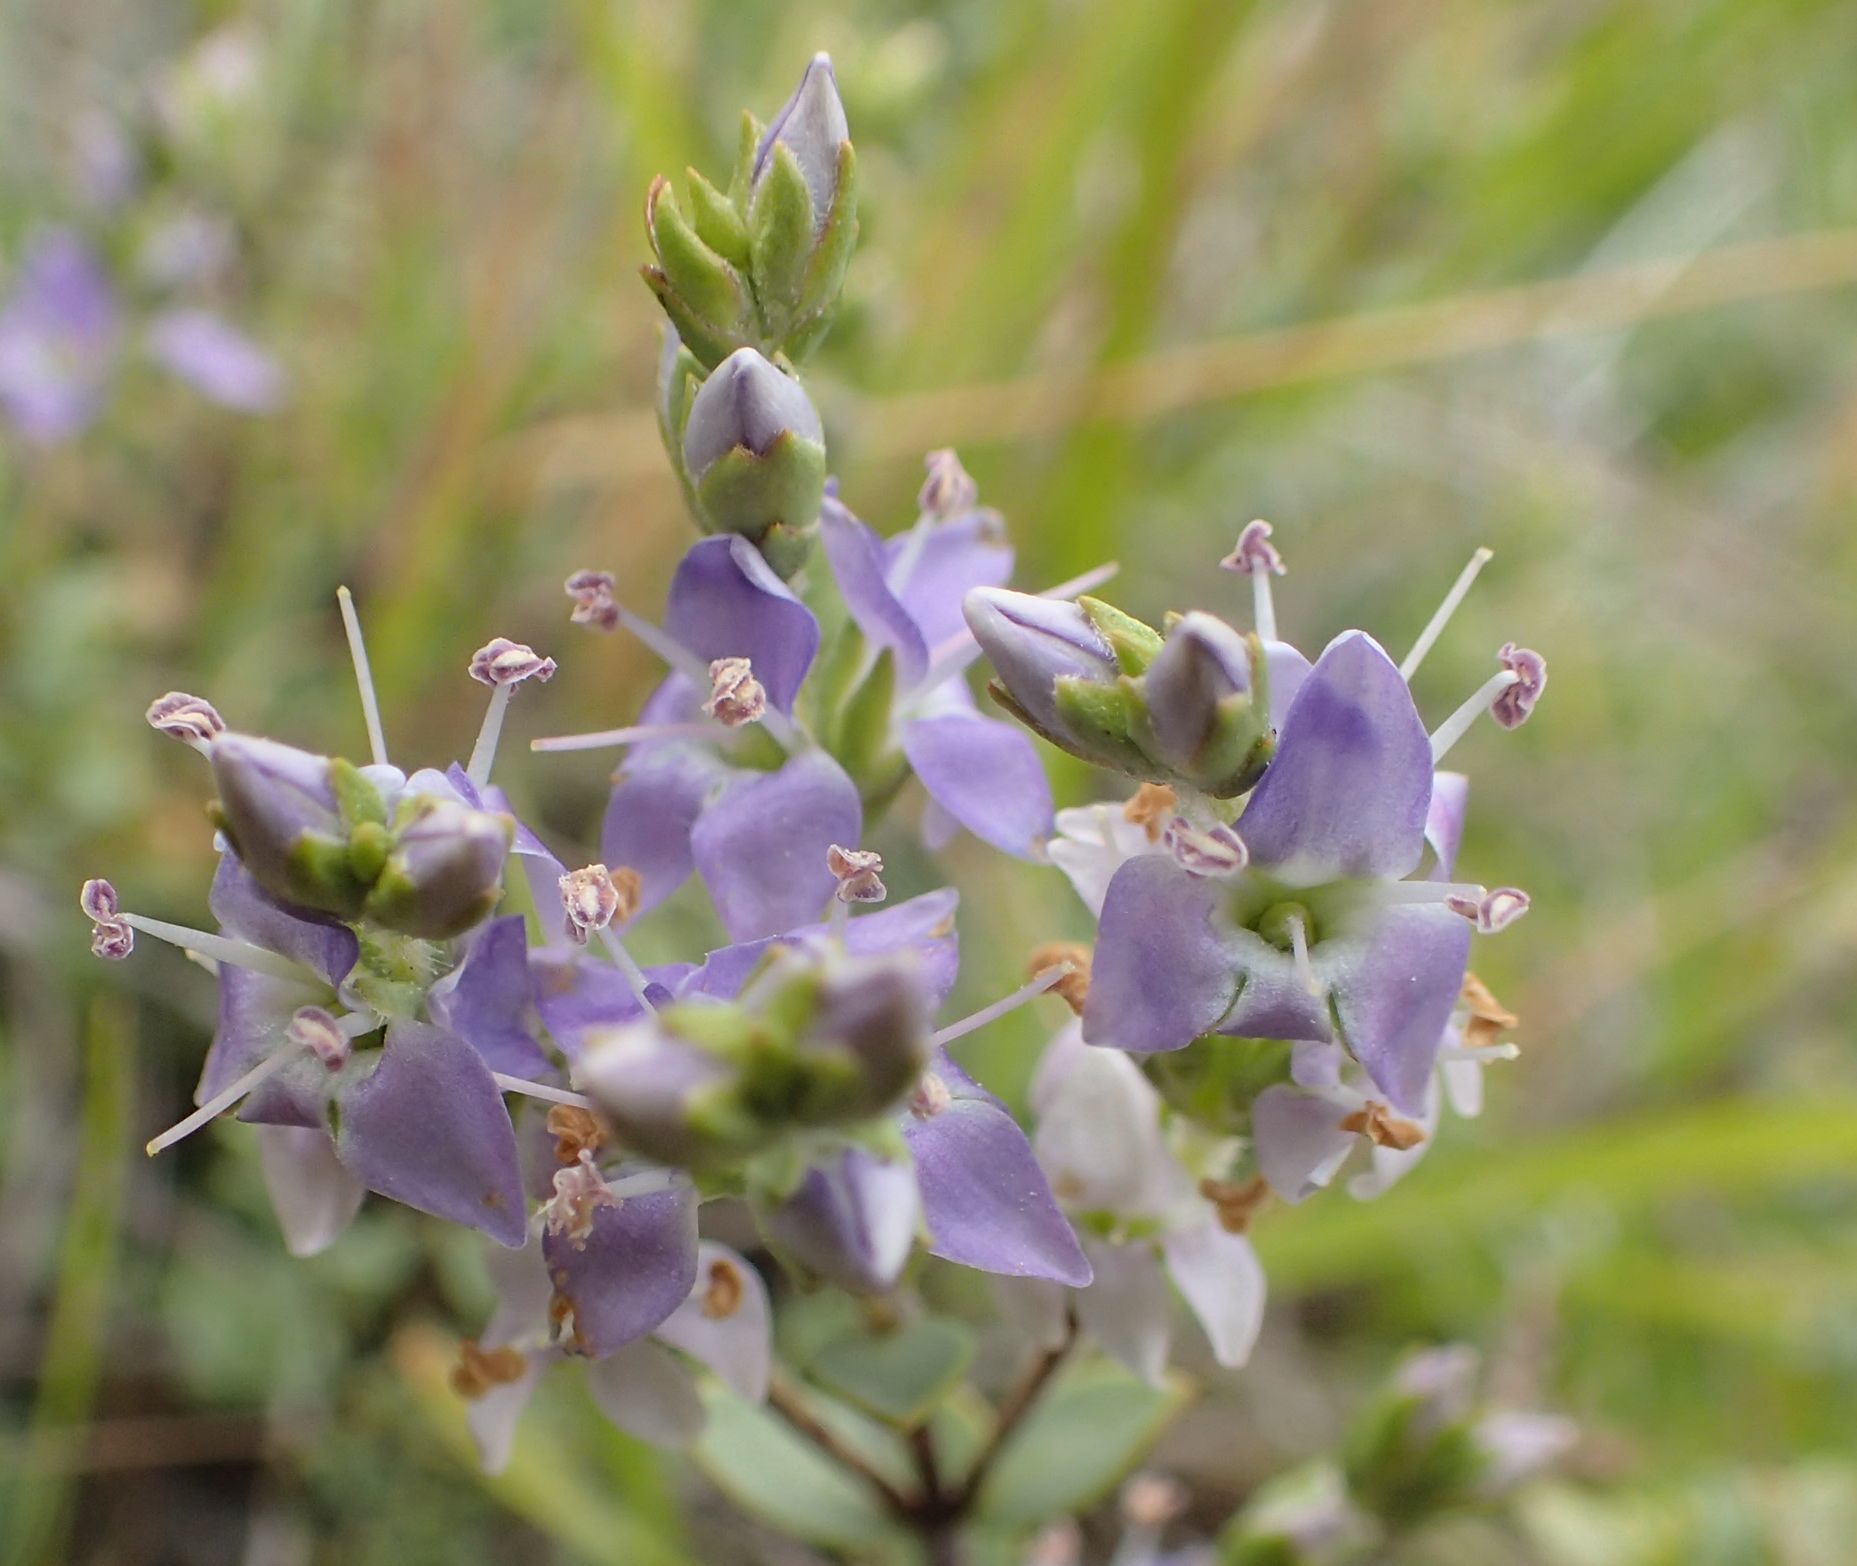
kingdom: Plantae
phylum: Tracheophyta
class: Magnoliopsida
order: Lamiales
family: Plantaginaceae
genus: Veronica
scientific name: Veronica pimeleoides
